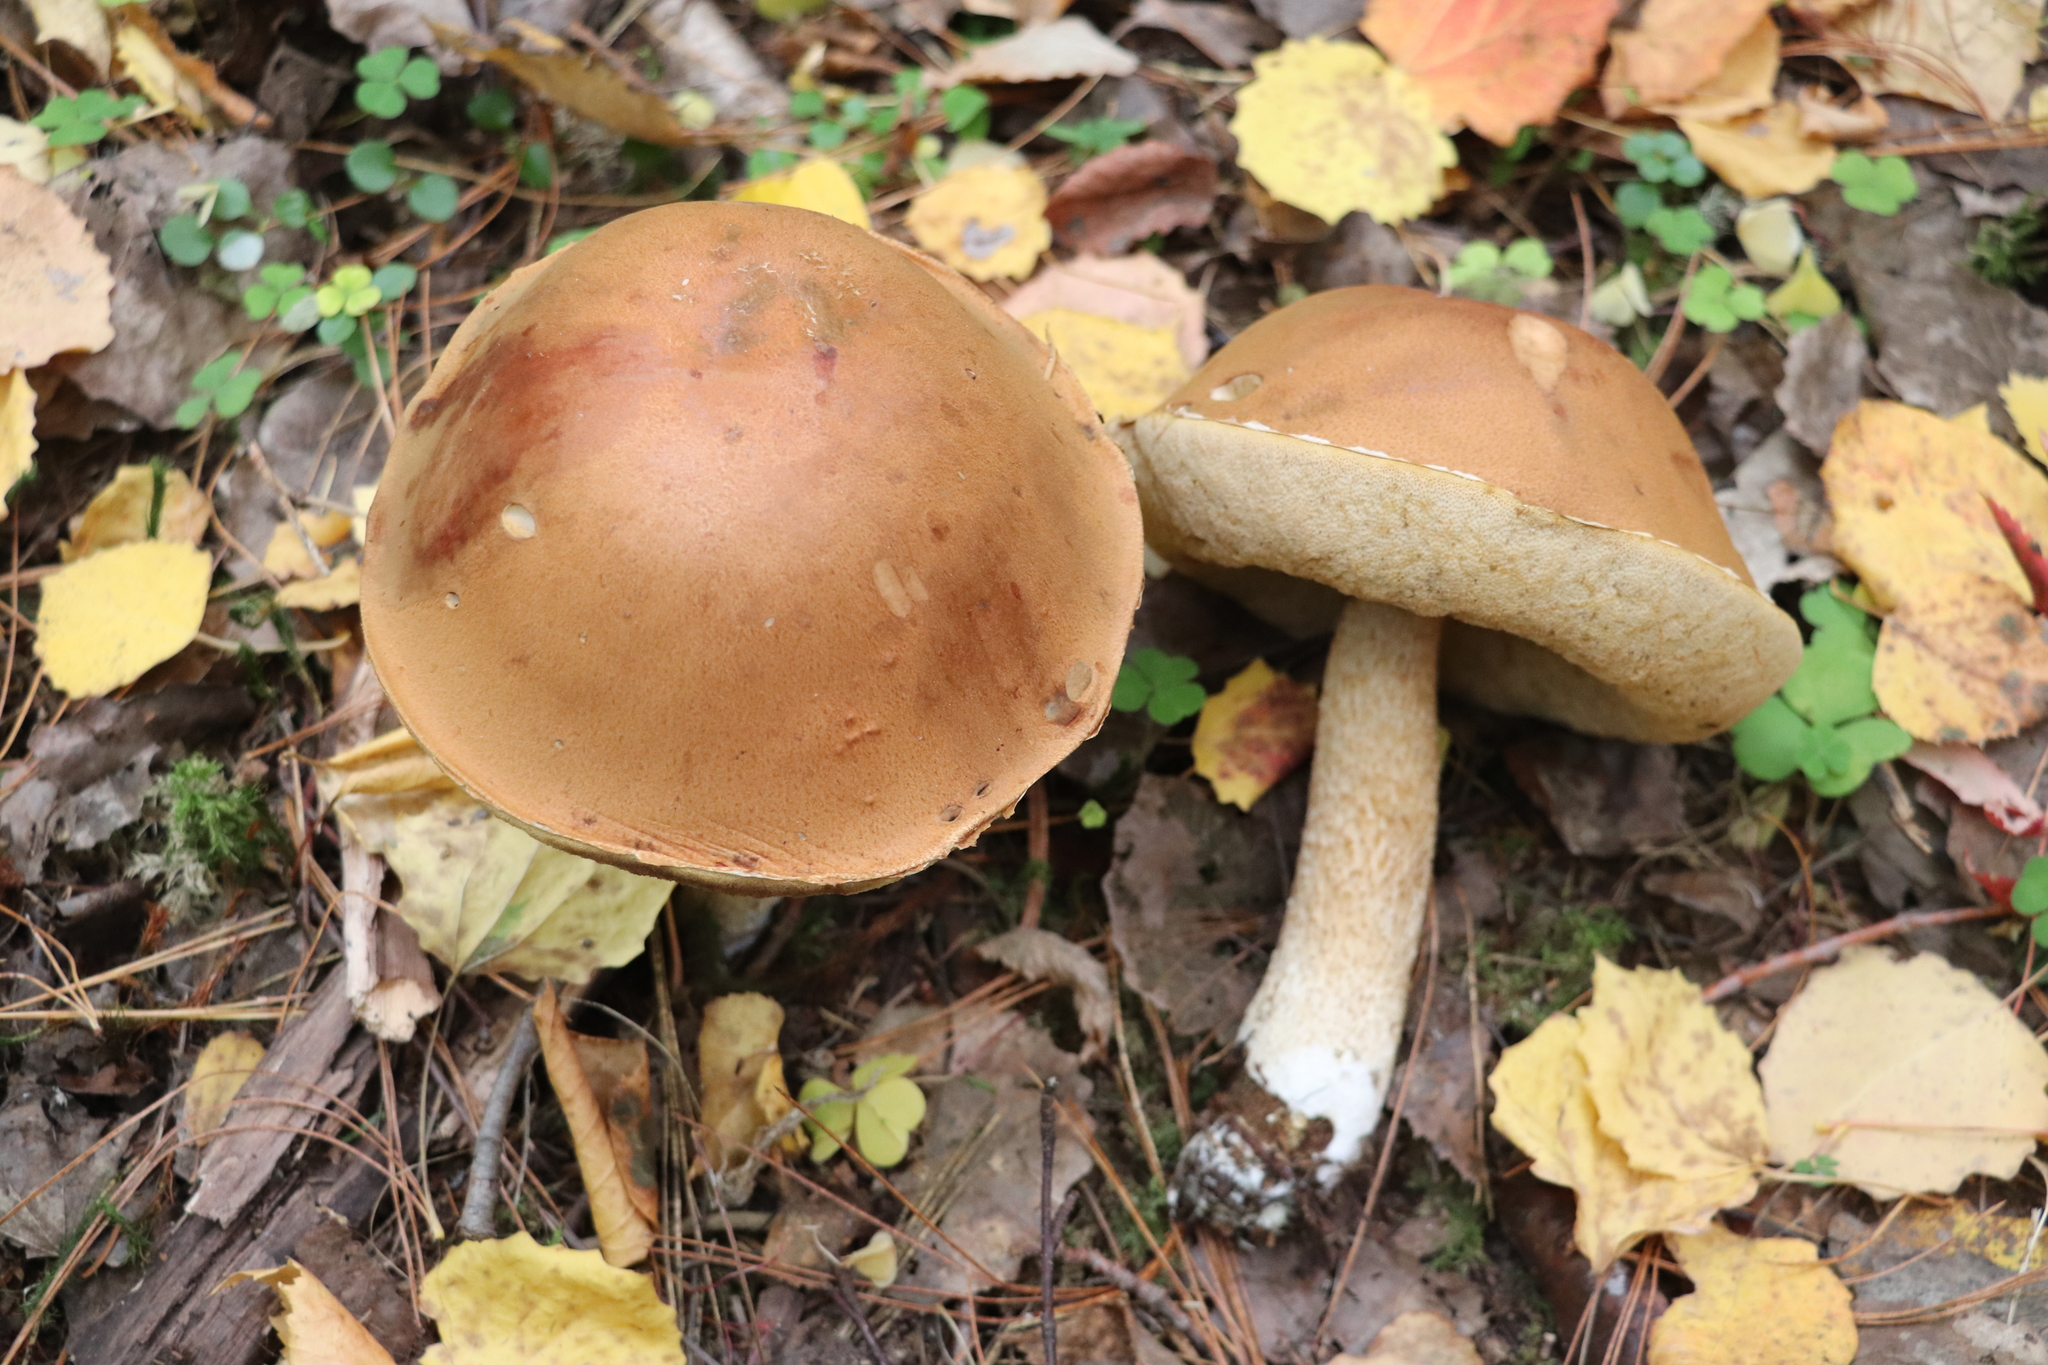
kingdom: Fungi
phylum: Basidiomycota
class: Agaricomycetes
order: Boletales
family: Boletaceae
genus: Leccinum
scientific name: Leccinum scabrum
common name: Blushing bolete
